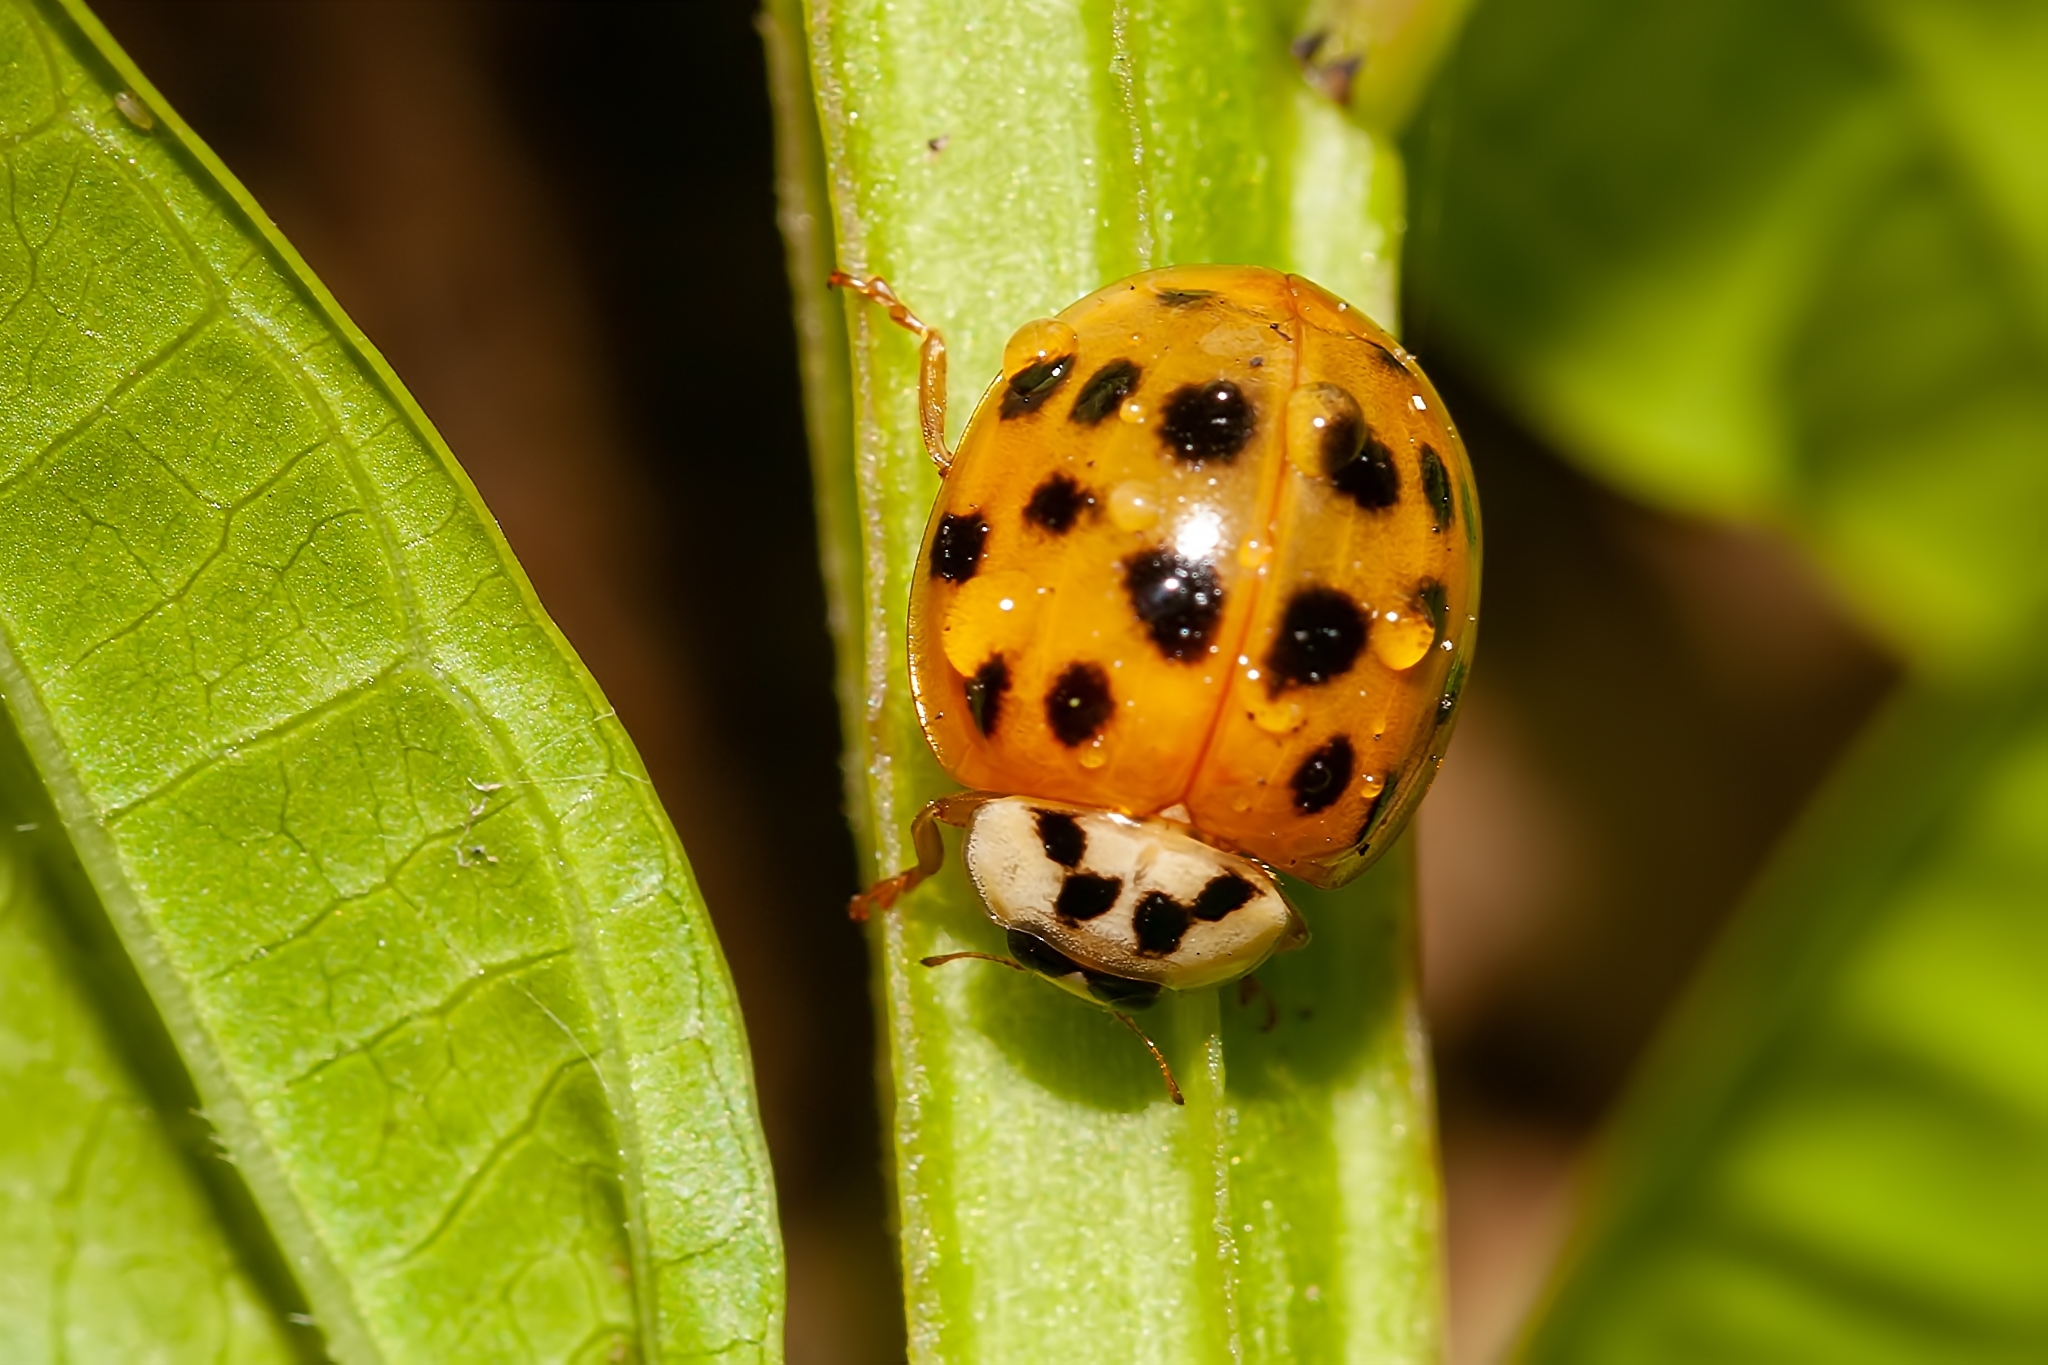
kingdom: Animalia
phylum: Arthropoda
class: Insecta
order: Coleoptera
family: Coccinellidae
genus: Harmonia
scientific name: Harmonia axyridis
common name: Harlequin ladybird
